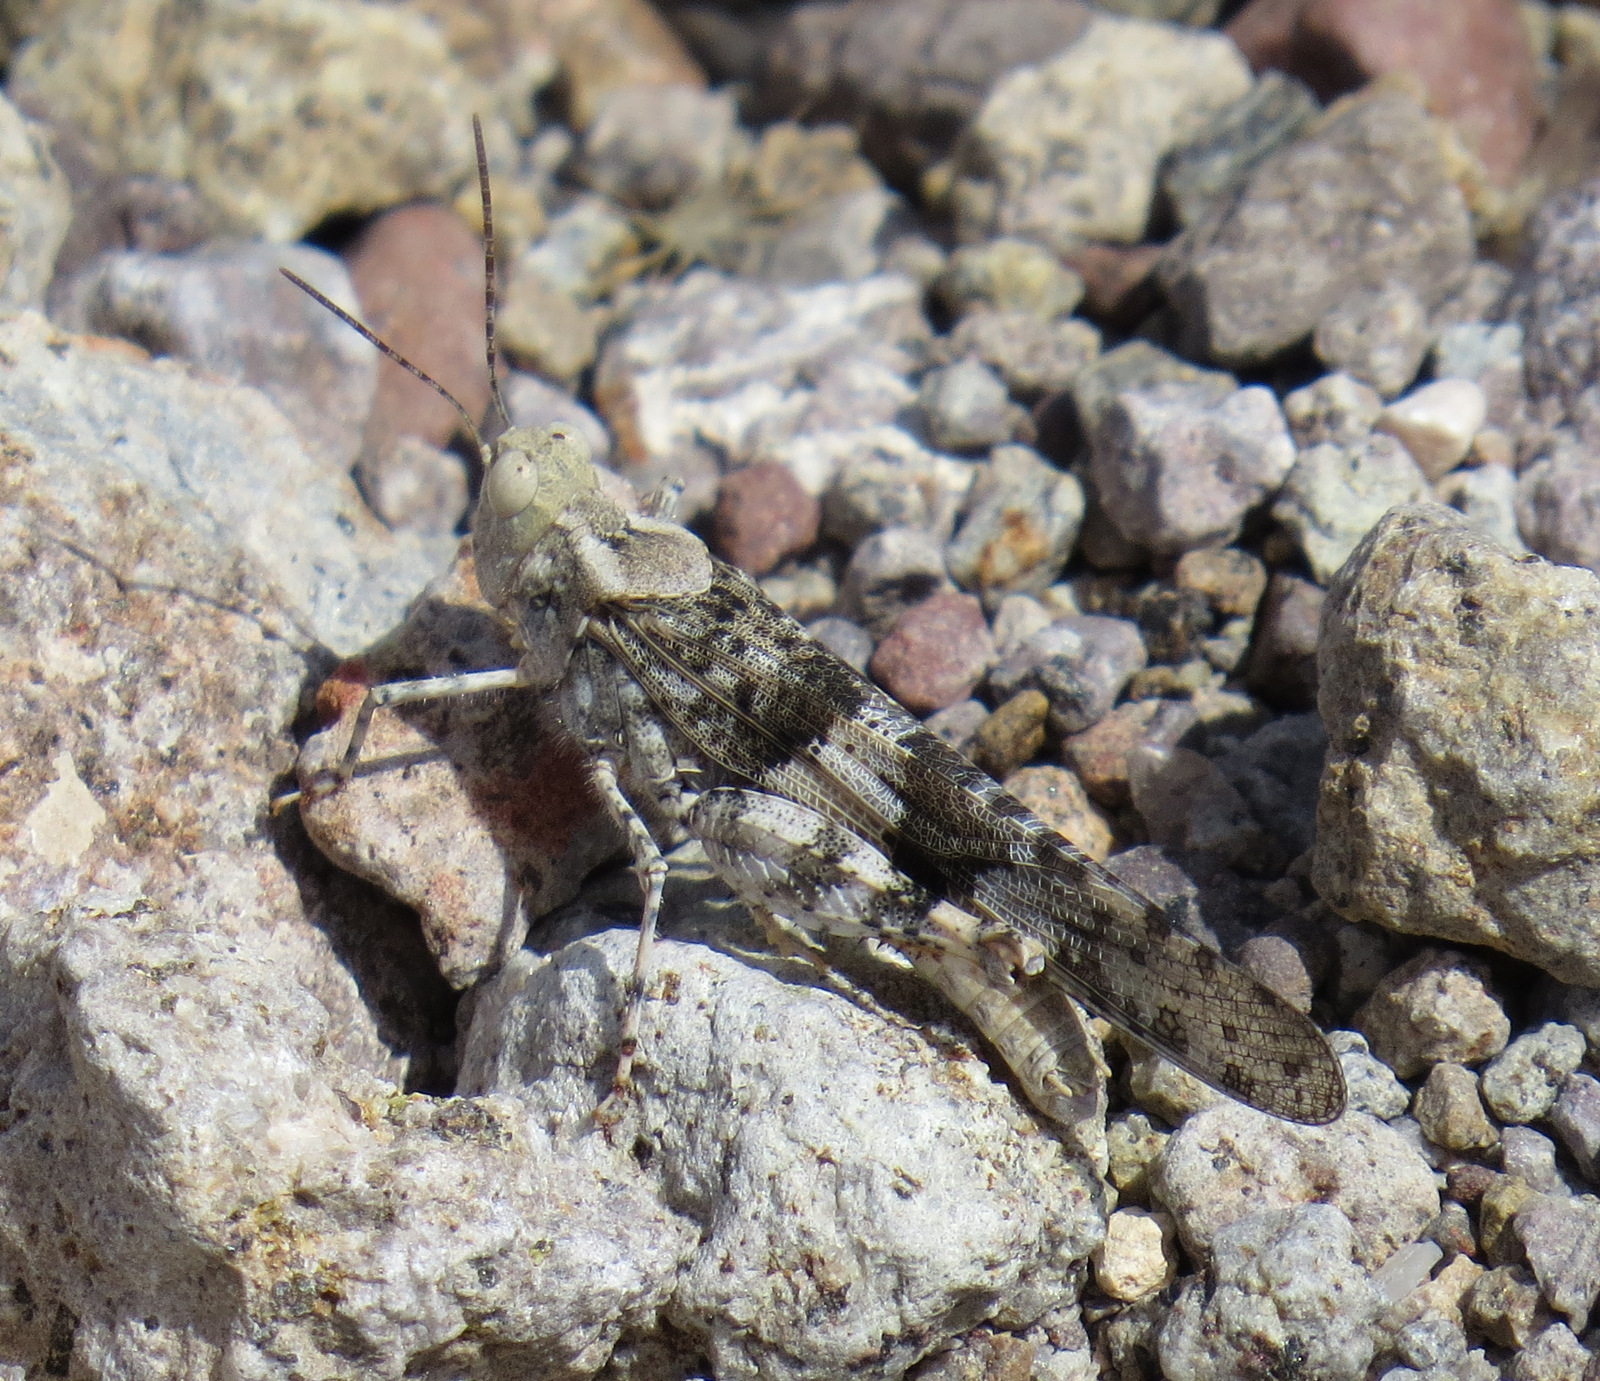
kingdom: Animalia
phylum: Arthropoda
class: Insecta
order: Orthoptera
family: Acrididae
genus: Trimerotropis
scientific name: Trimerotropis pallidipennis
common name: Pallid-winged grasshopper
